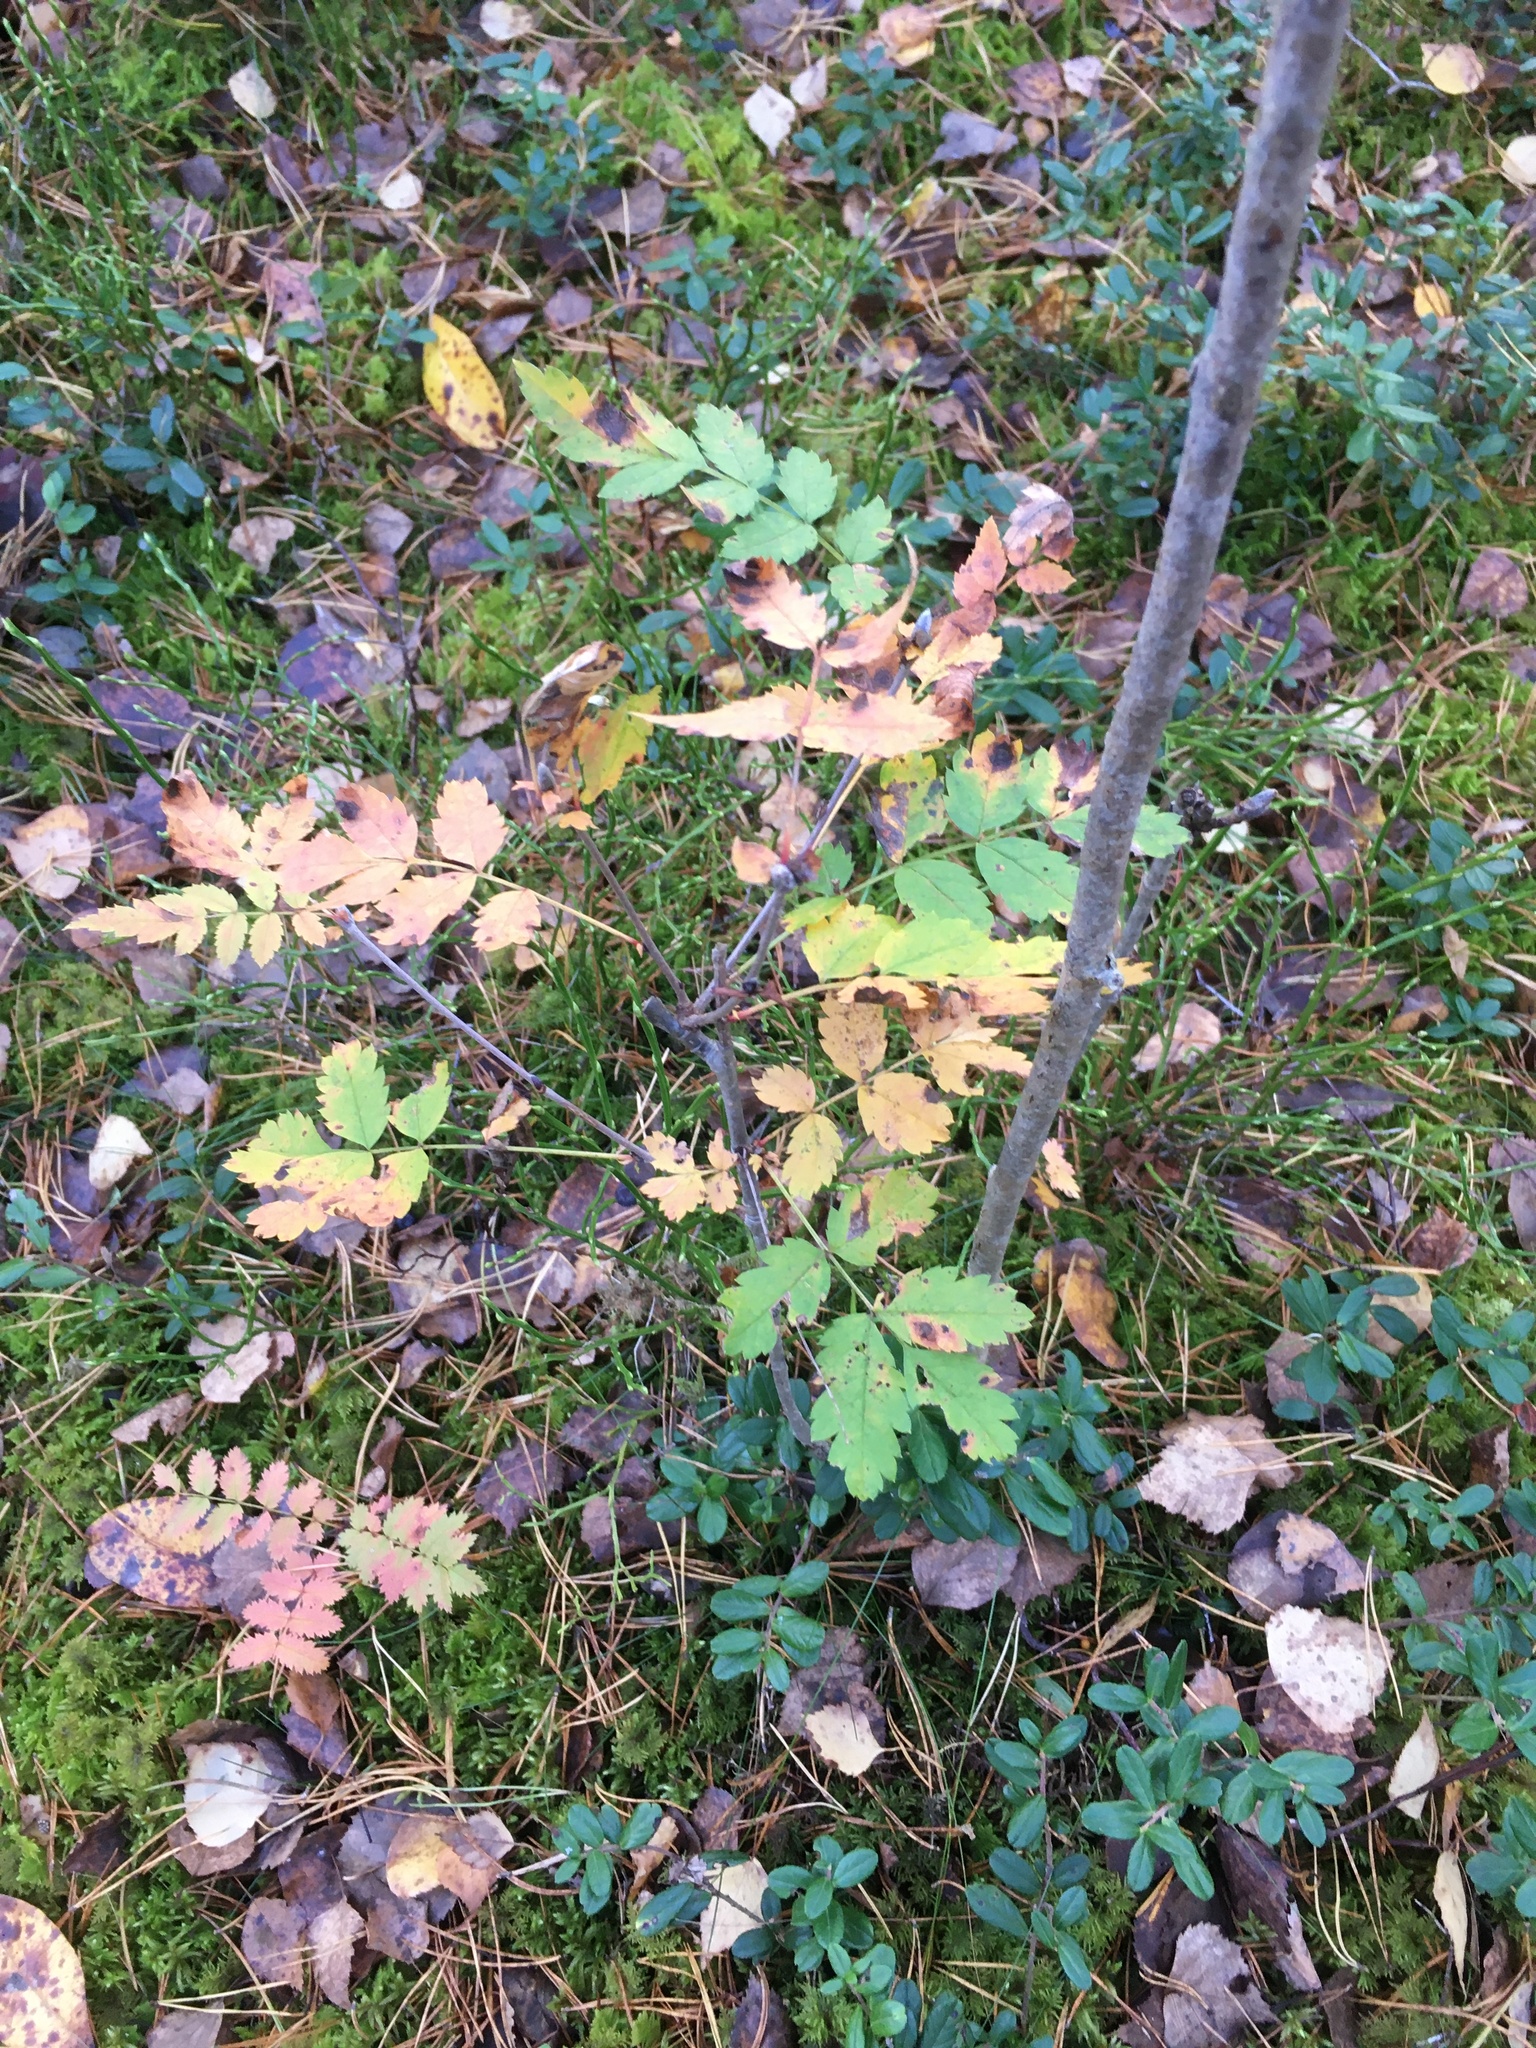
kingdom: Plantae
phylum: Tracheophyta
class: Magnoliopsida
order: Rosales
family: Rosaceae
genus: Sorbus
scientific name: Sorbus aucuparia
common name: Rowan
